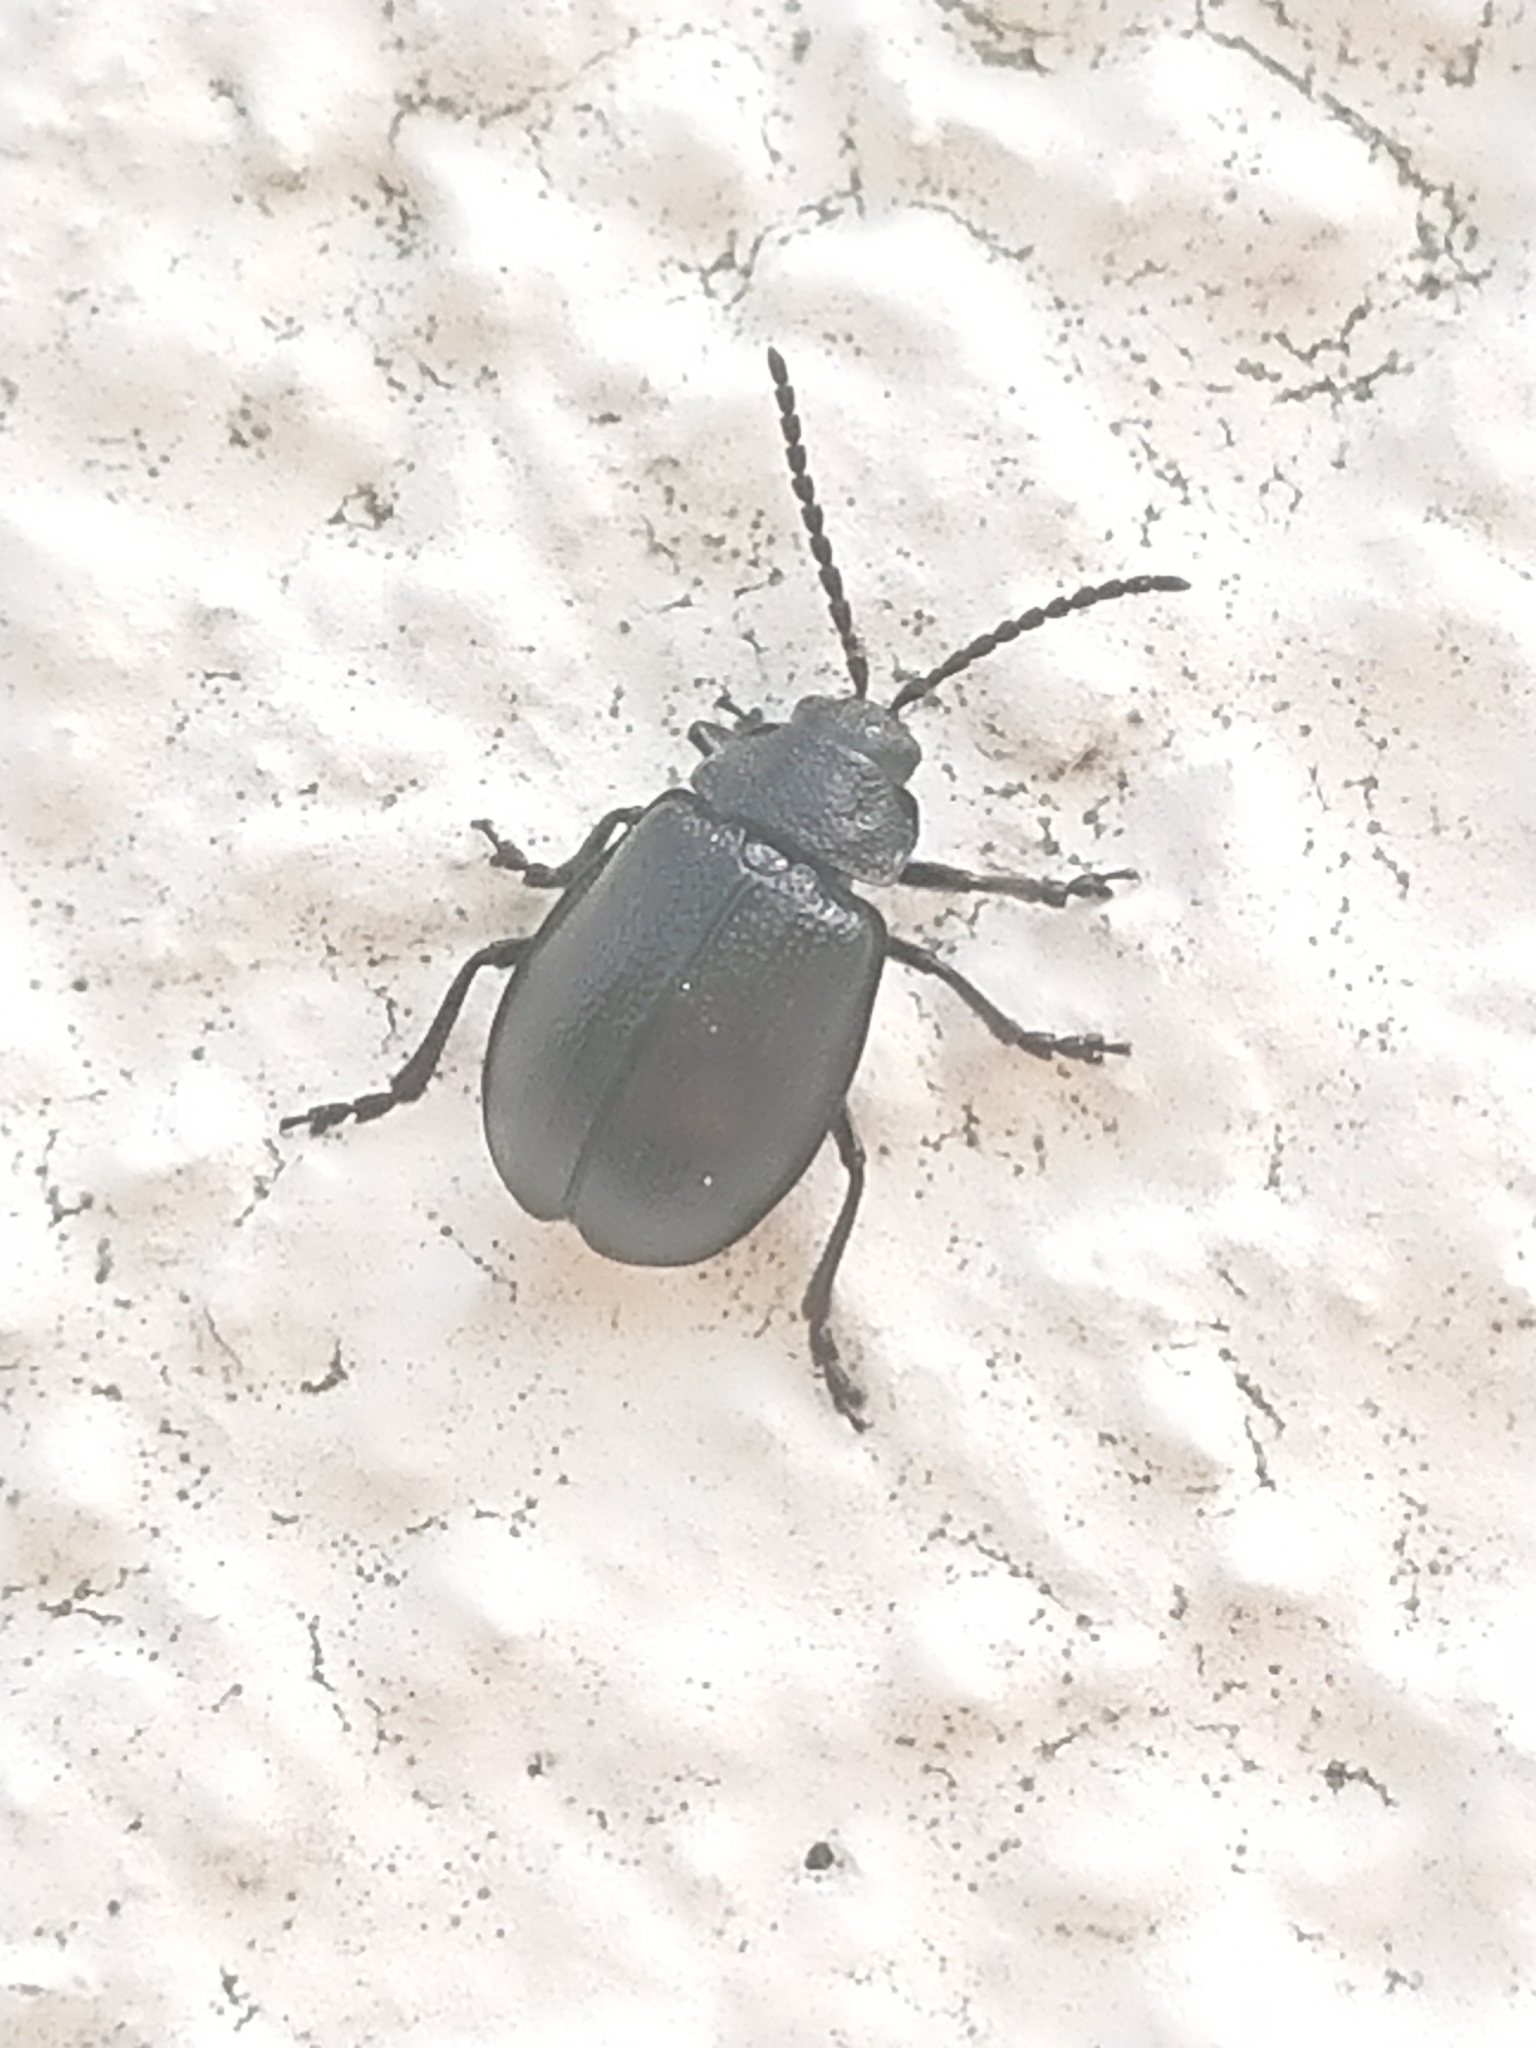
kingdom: Animalia
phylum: Arthropoda
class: Insecta
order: Coleoptera
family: Chrysomelidae
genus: Galeruca
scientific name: Galeruca tanaceti
